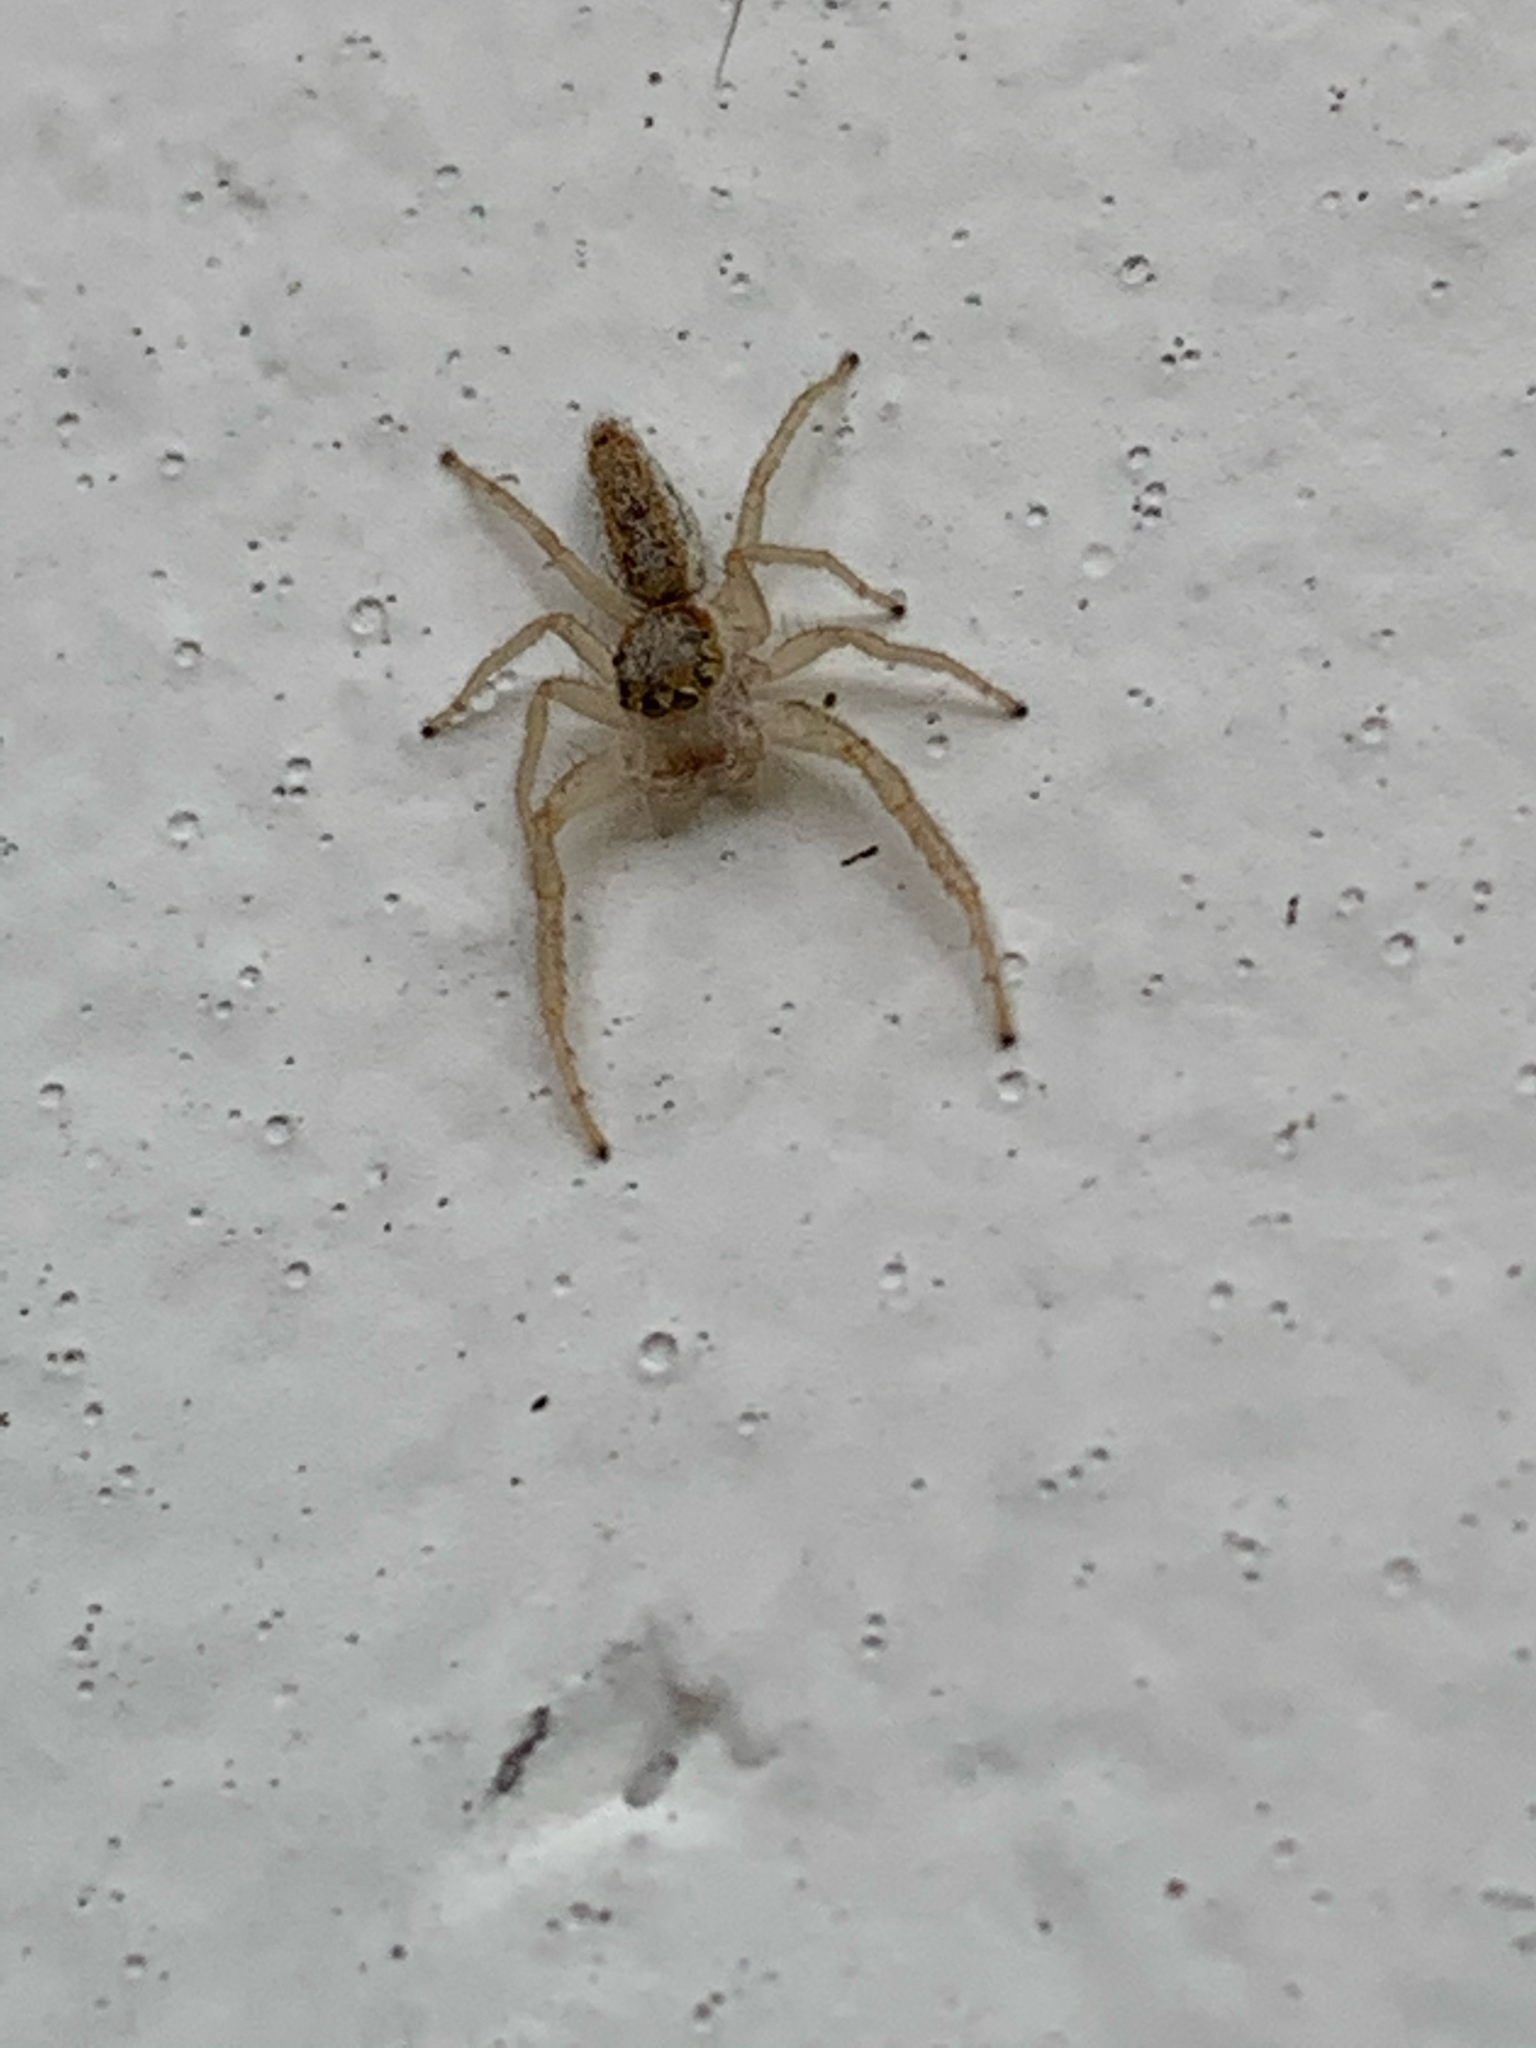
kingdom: Animalia
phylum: Arthropoda
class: Arachnida
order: Araneae
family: Salticidae
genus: Hentzia
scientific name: Hentzia mitrata
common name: White-jawed jumping spider
